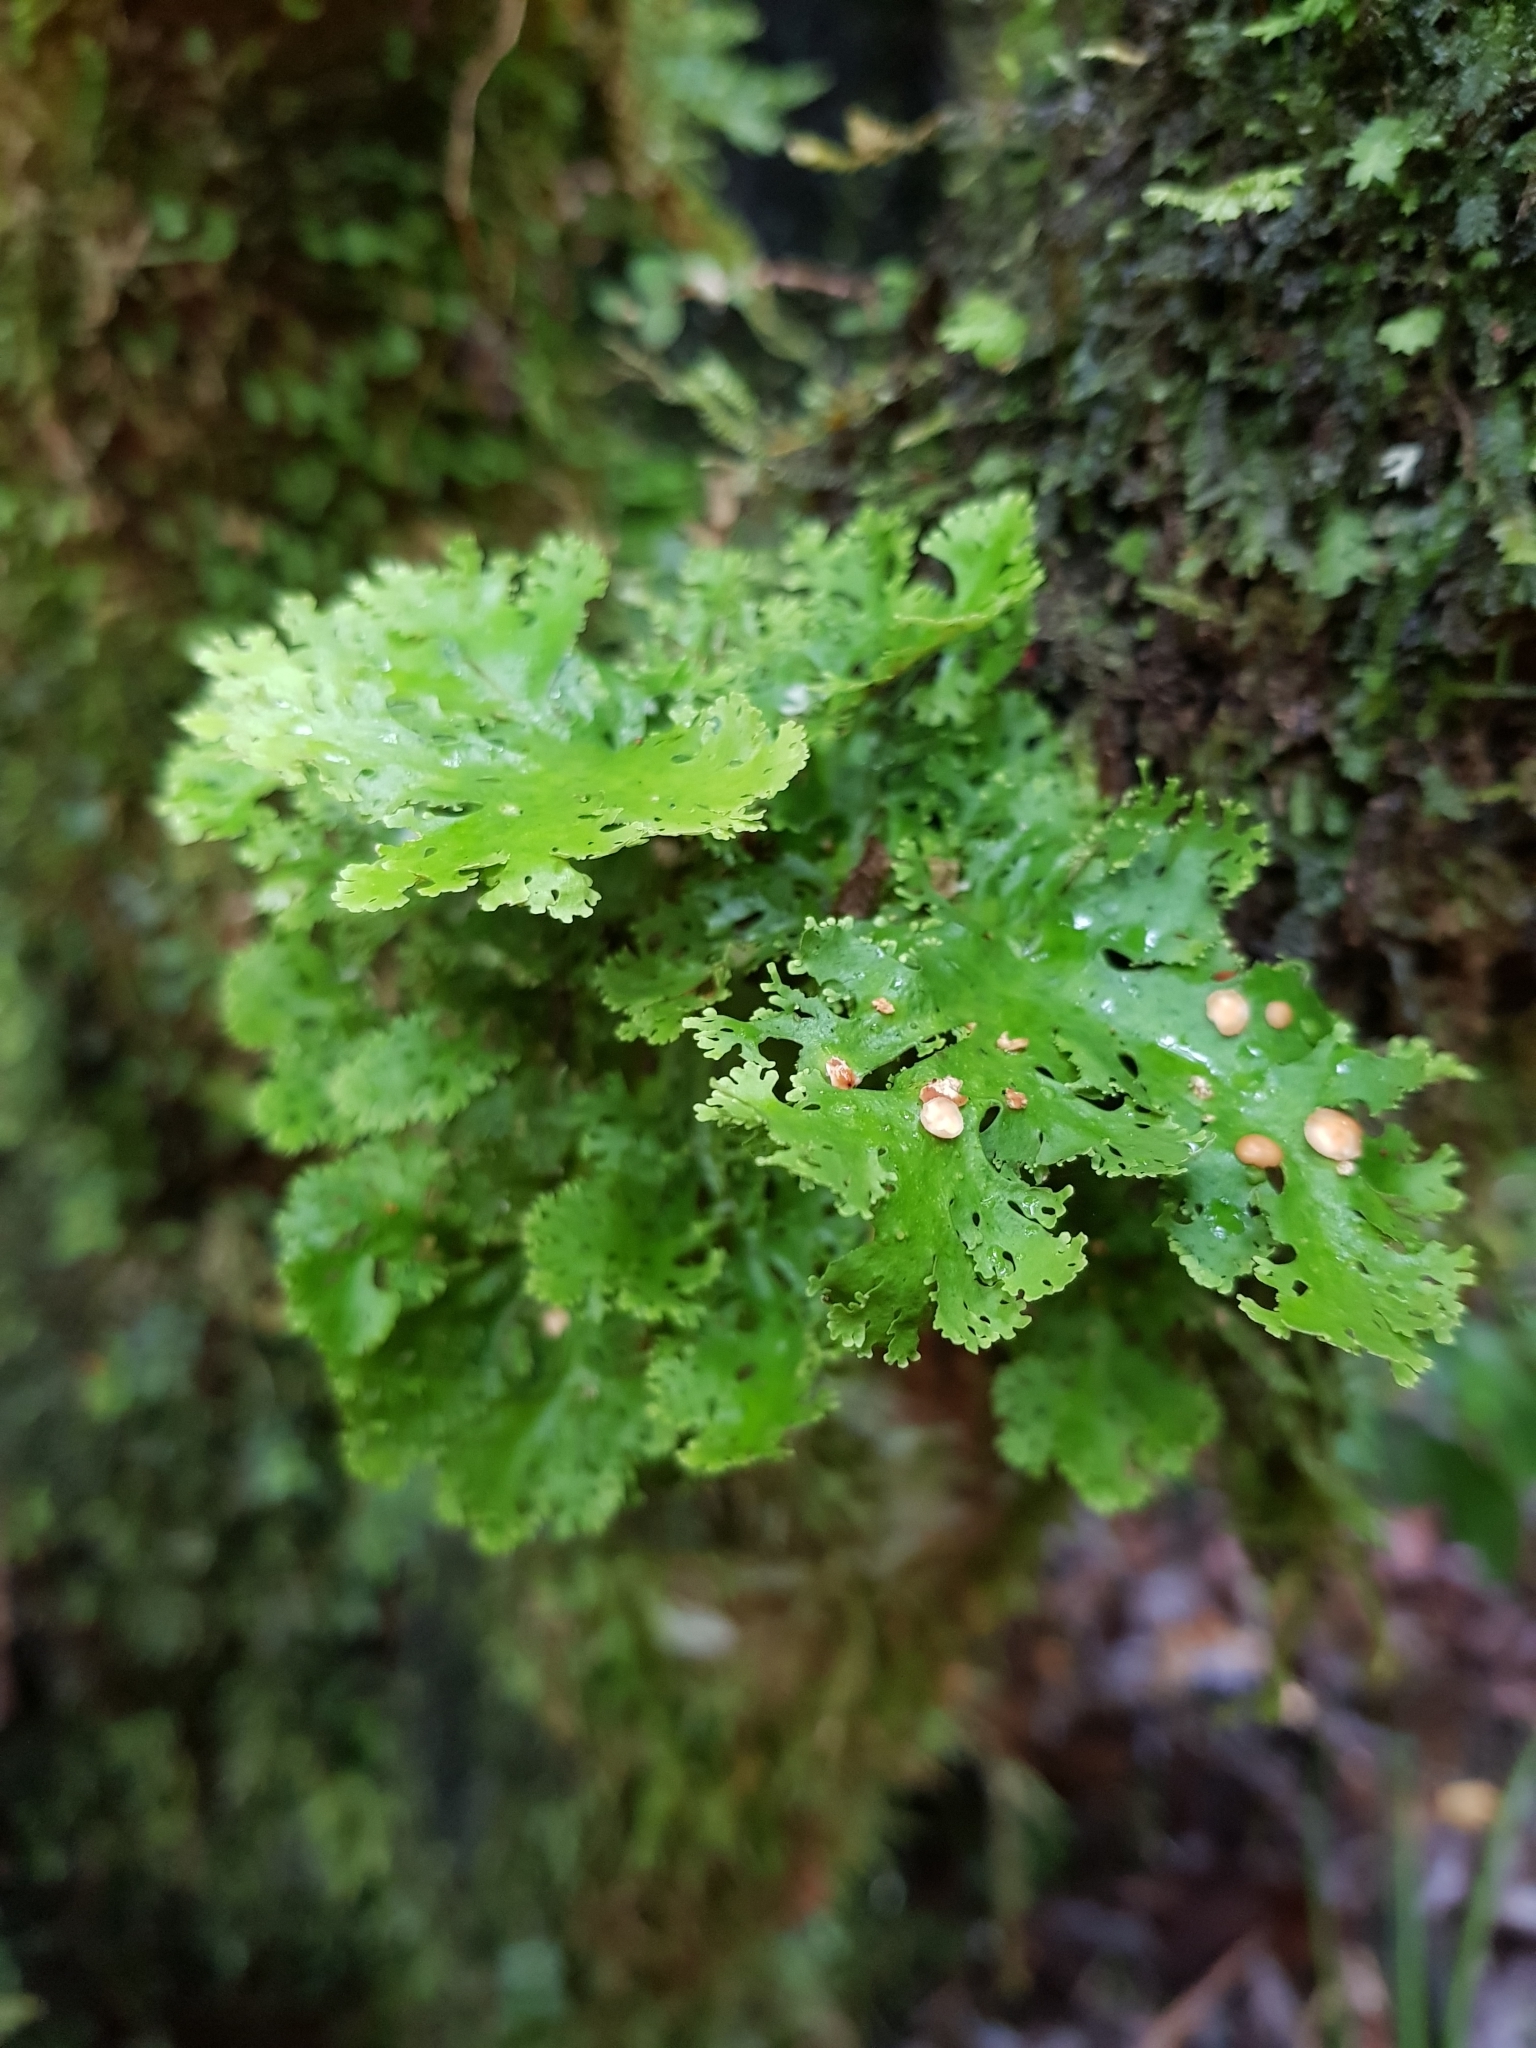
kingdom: Fungi
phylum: Ascomycota
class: Lecanoromycetes
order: Peltigerales
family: Lobariaceae
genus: Sticta
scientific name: Sticta filix
